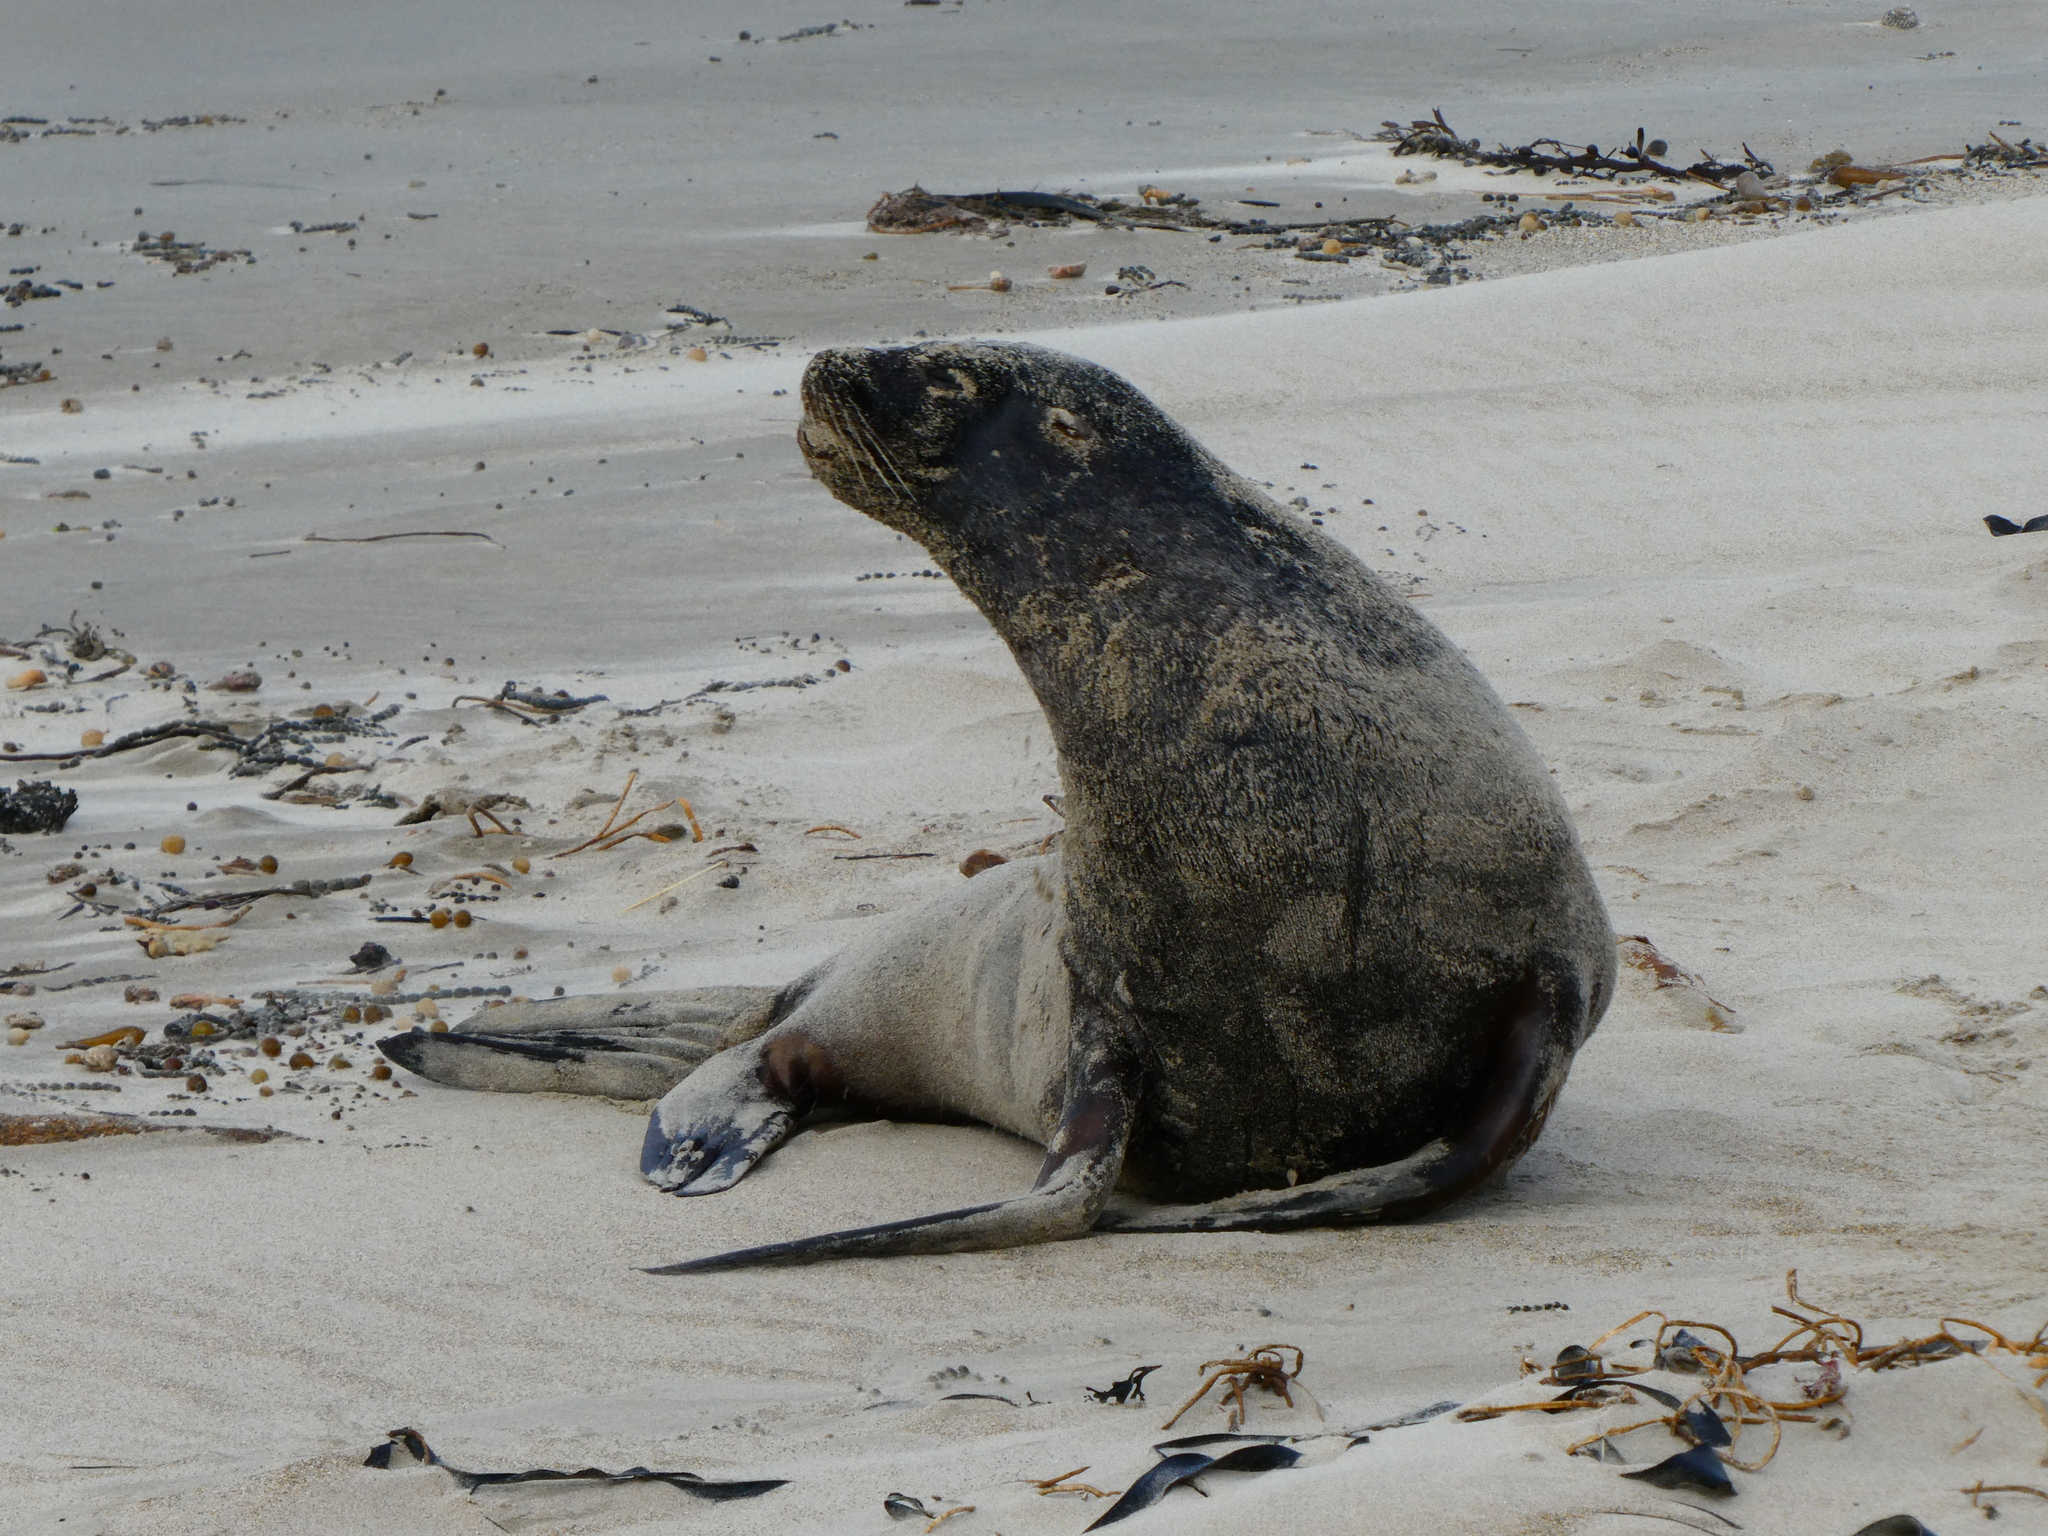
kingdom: Animalia
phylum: Chordata
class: Mammalia
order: Carnivora
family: Otariidae
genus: Phocarctos
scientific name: Phocarctos hookeri
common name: New zealand sea lion
